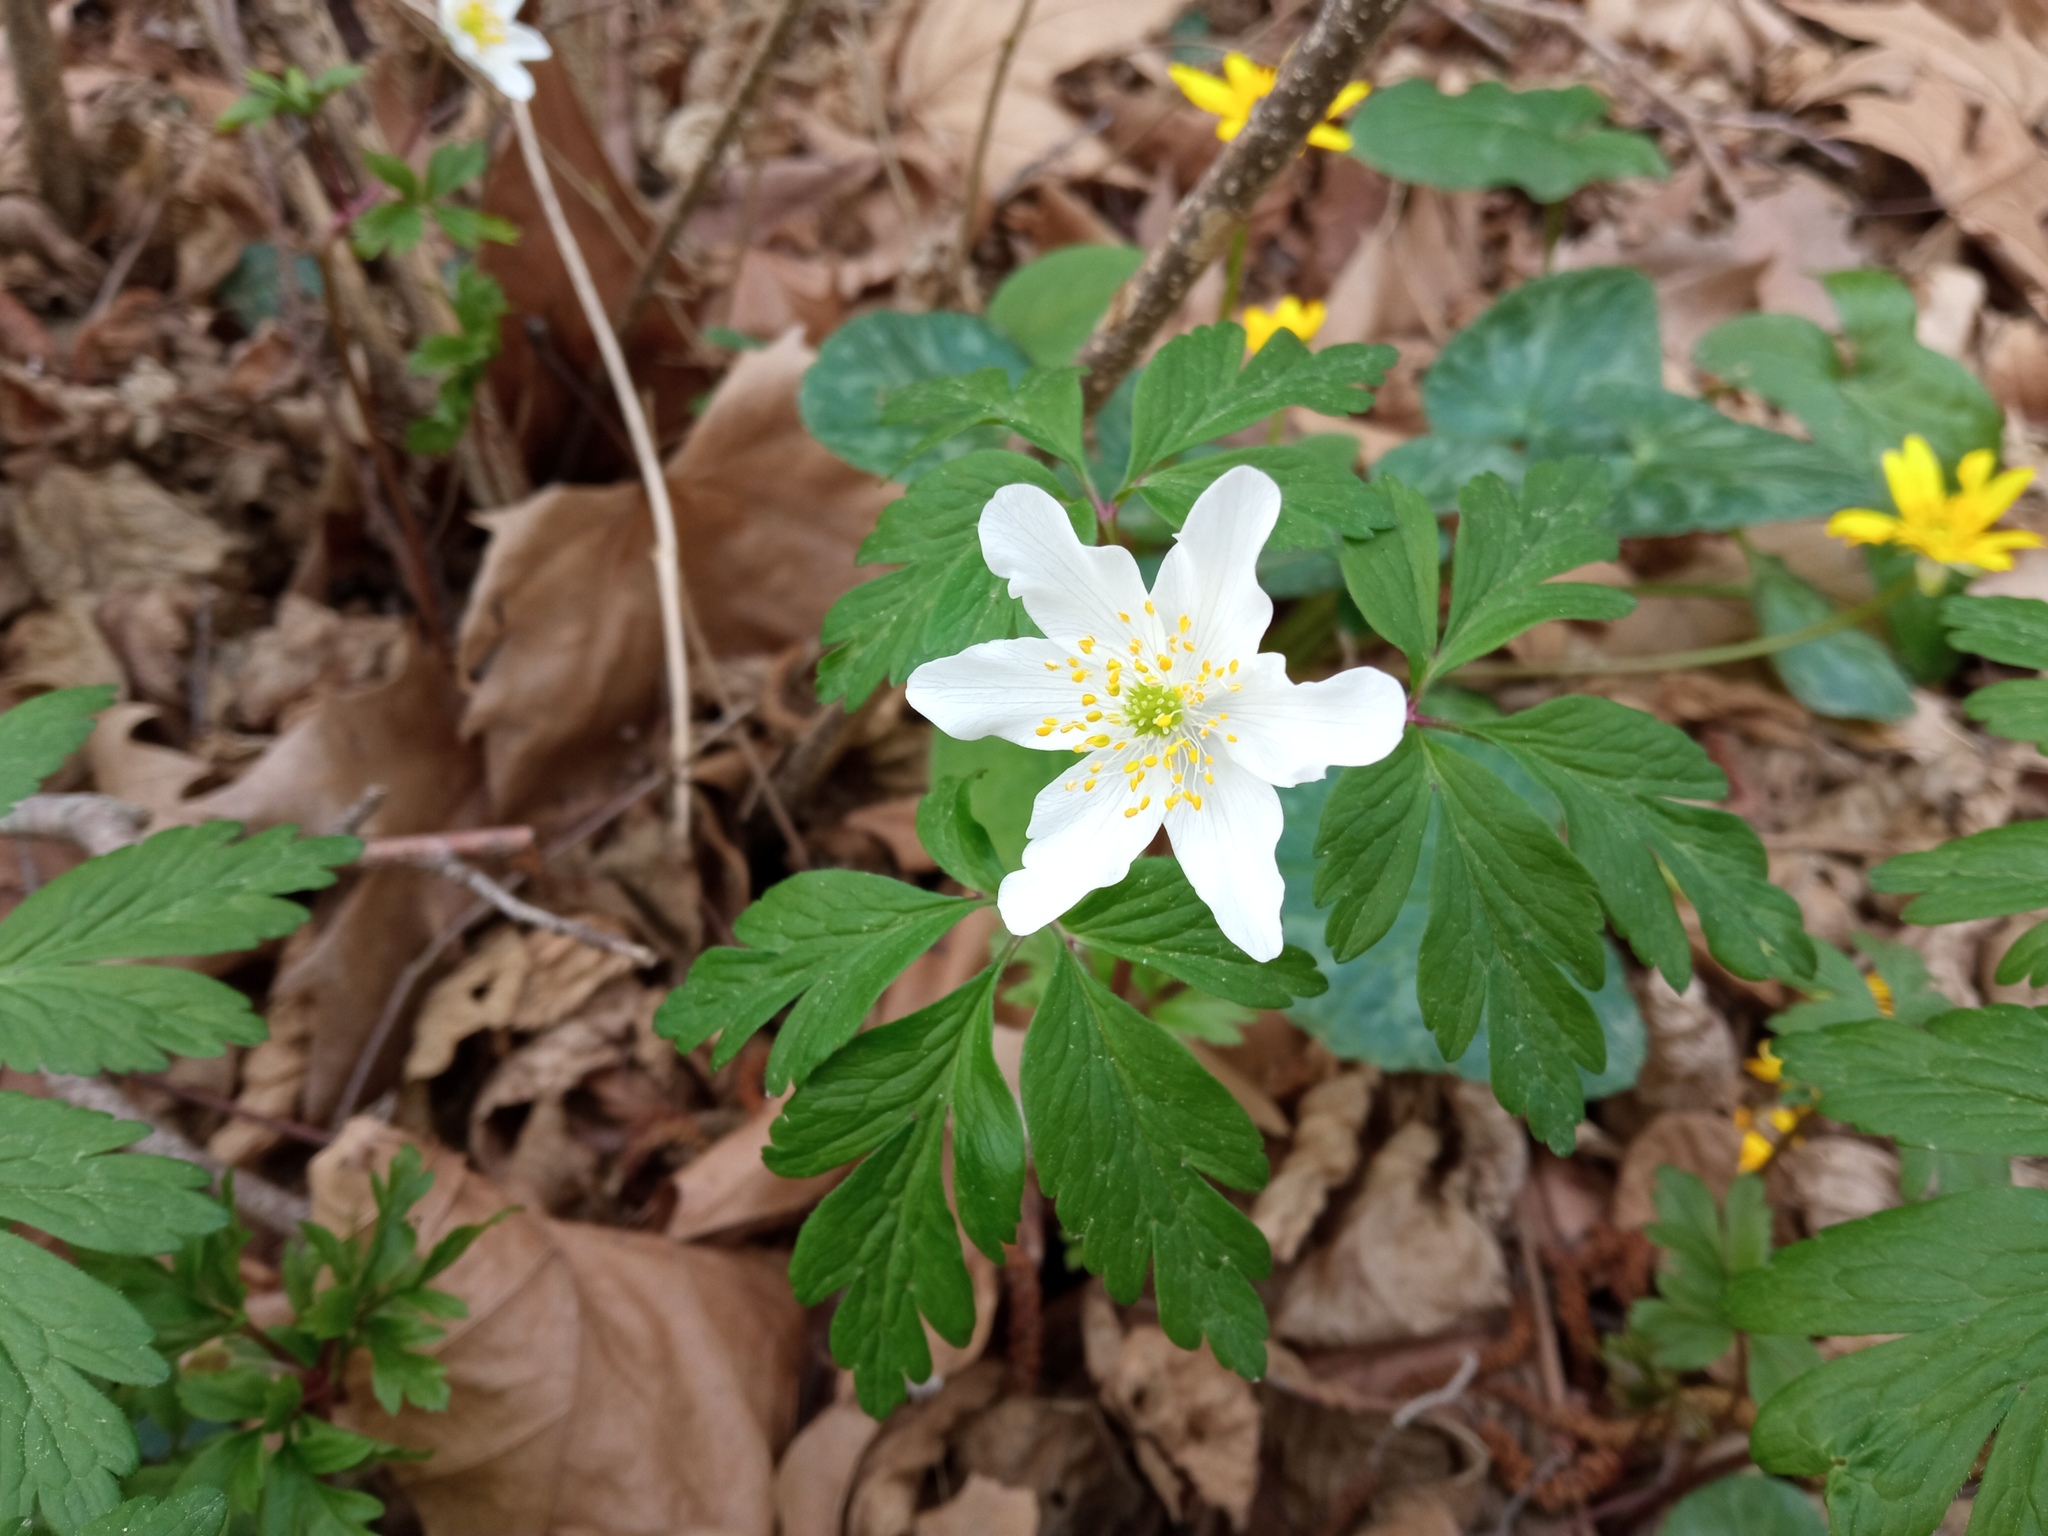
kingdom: Plantae
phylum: Tracheophyta
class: Magnoliopsida
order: Ranunculales
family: Ranunculaceae
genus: Anemone
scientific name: Anemone nemorosa
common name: Wood anemone
